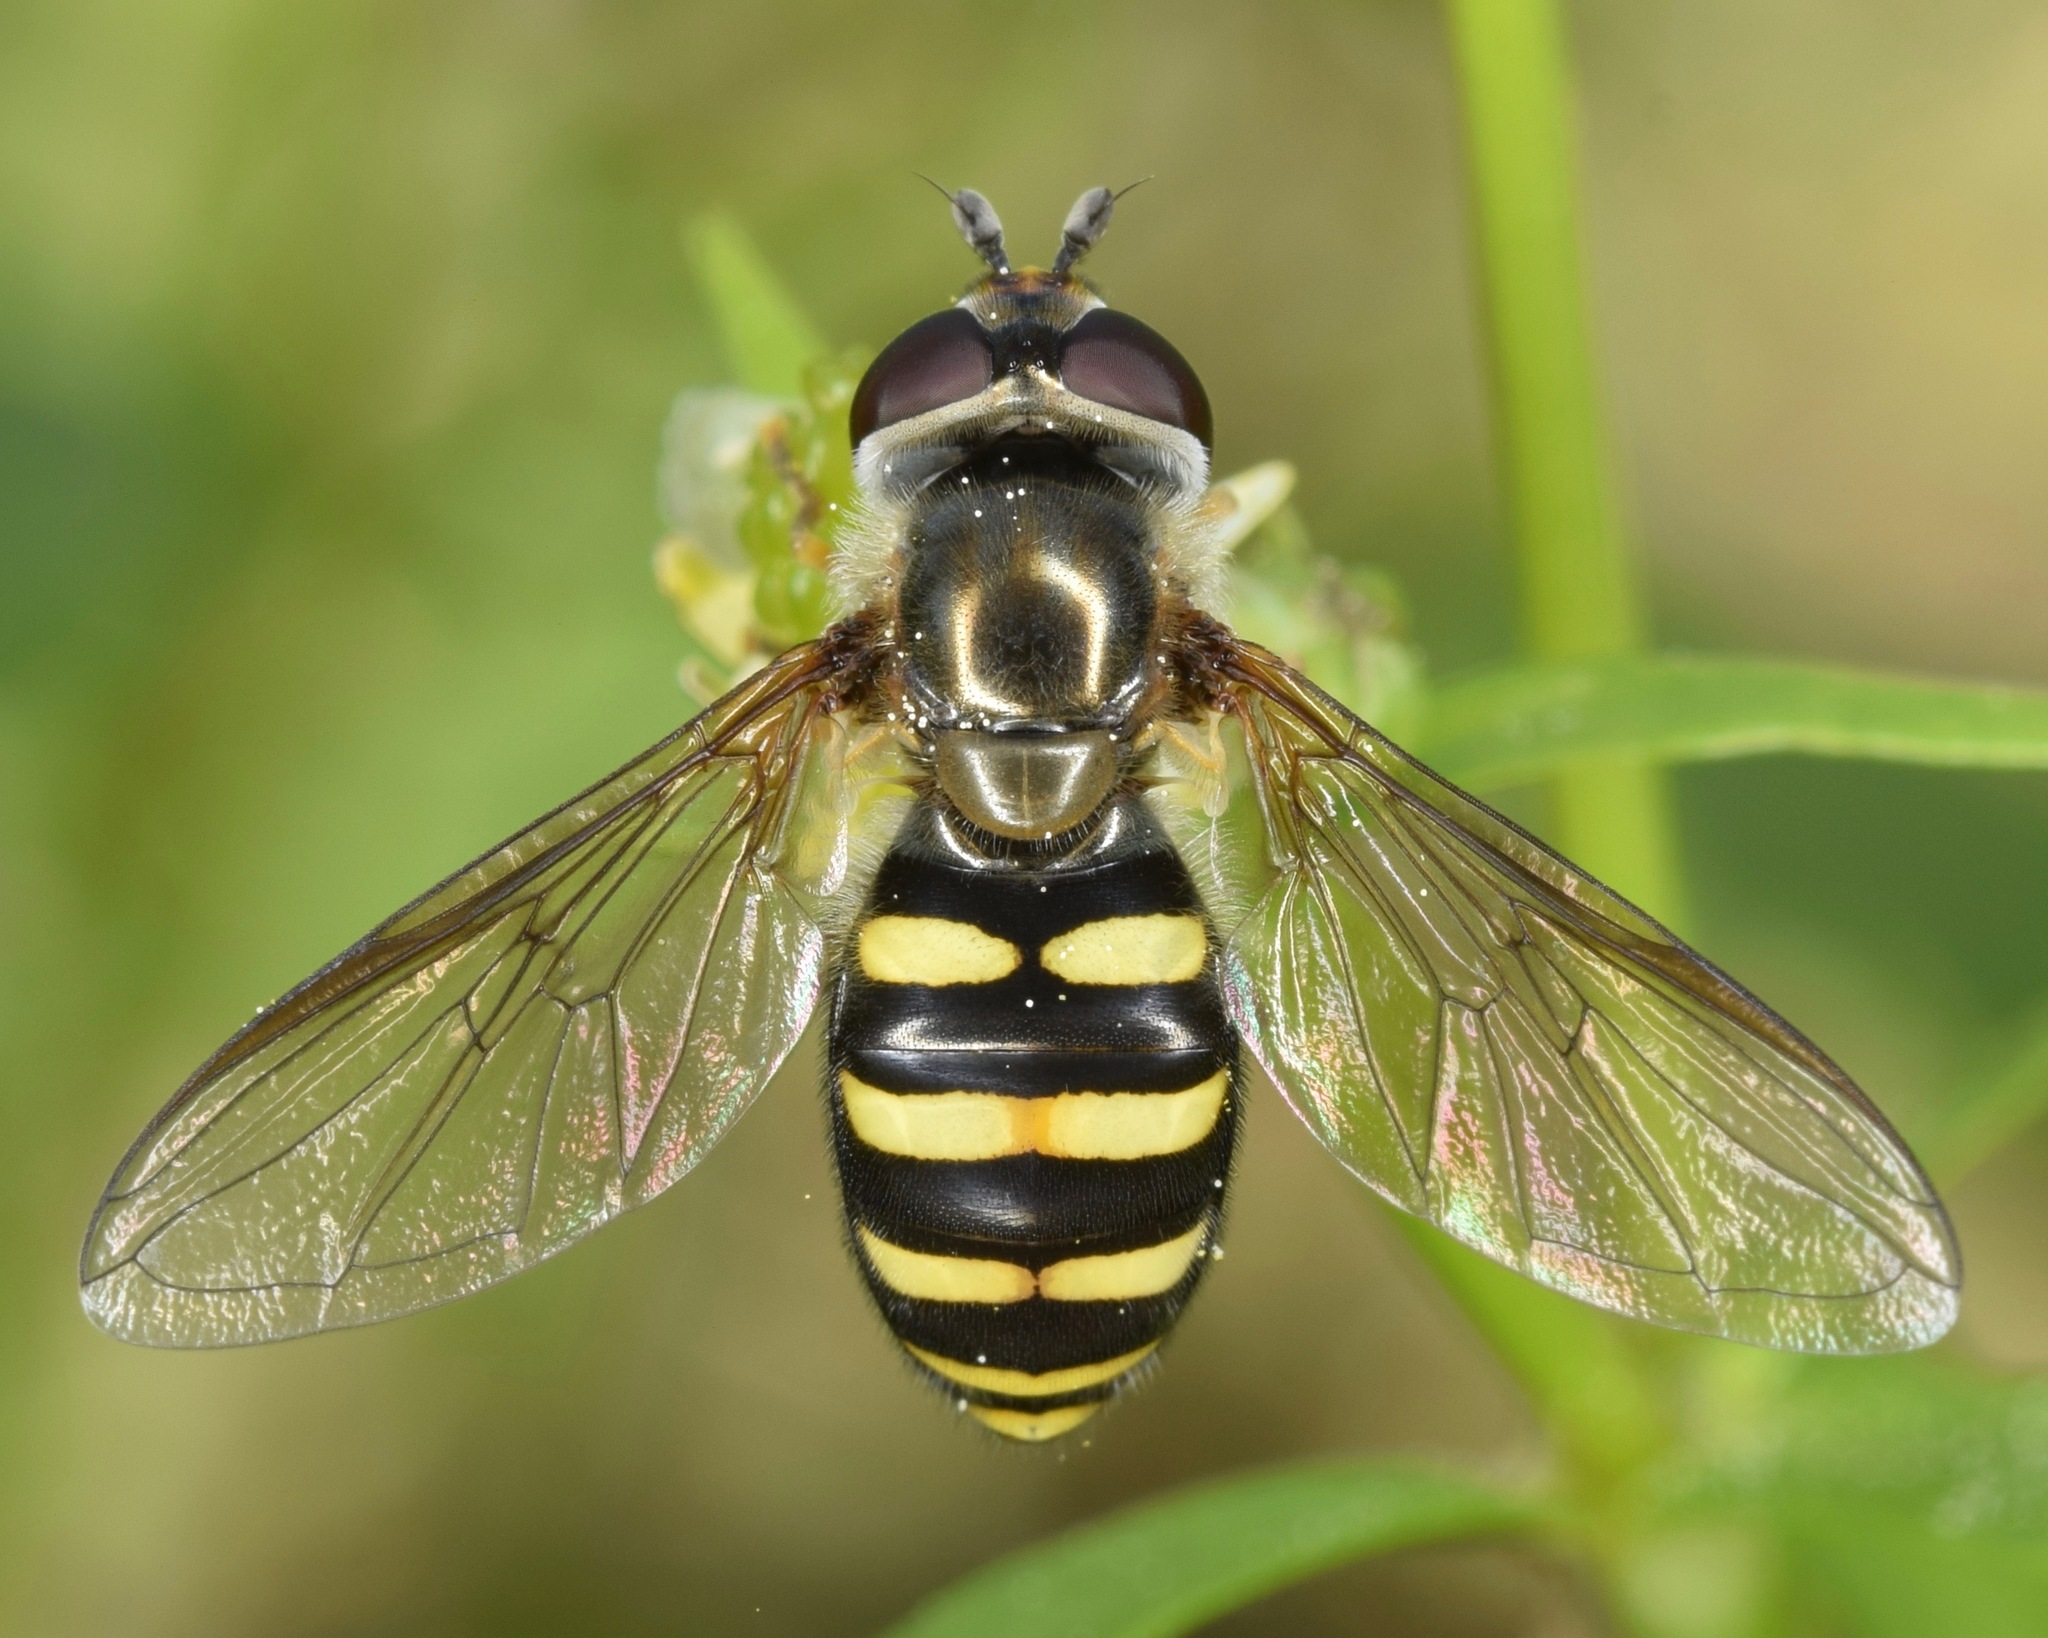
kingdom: Animalia
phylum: Arthropoda
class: Insecta
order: Diptera
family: Syrphidae
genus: Eupeodes
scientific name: Eupeodes
